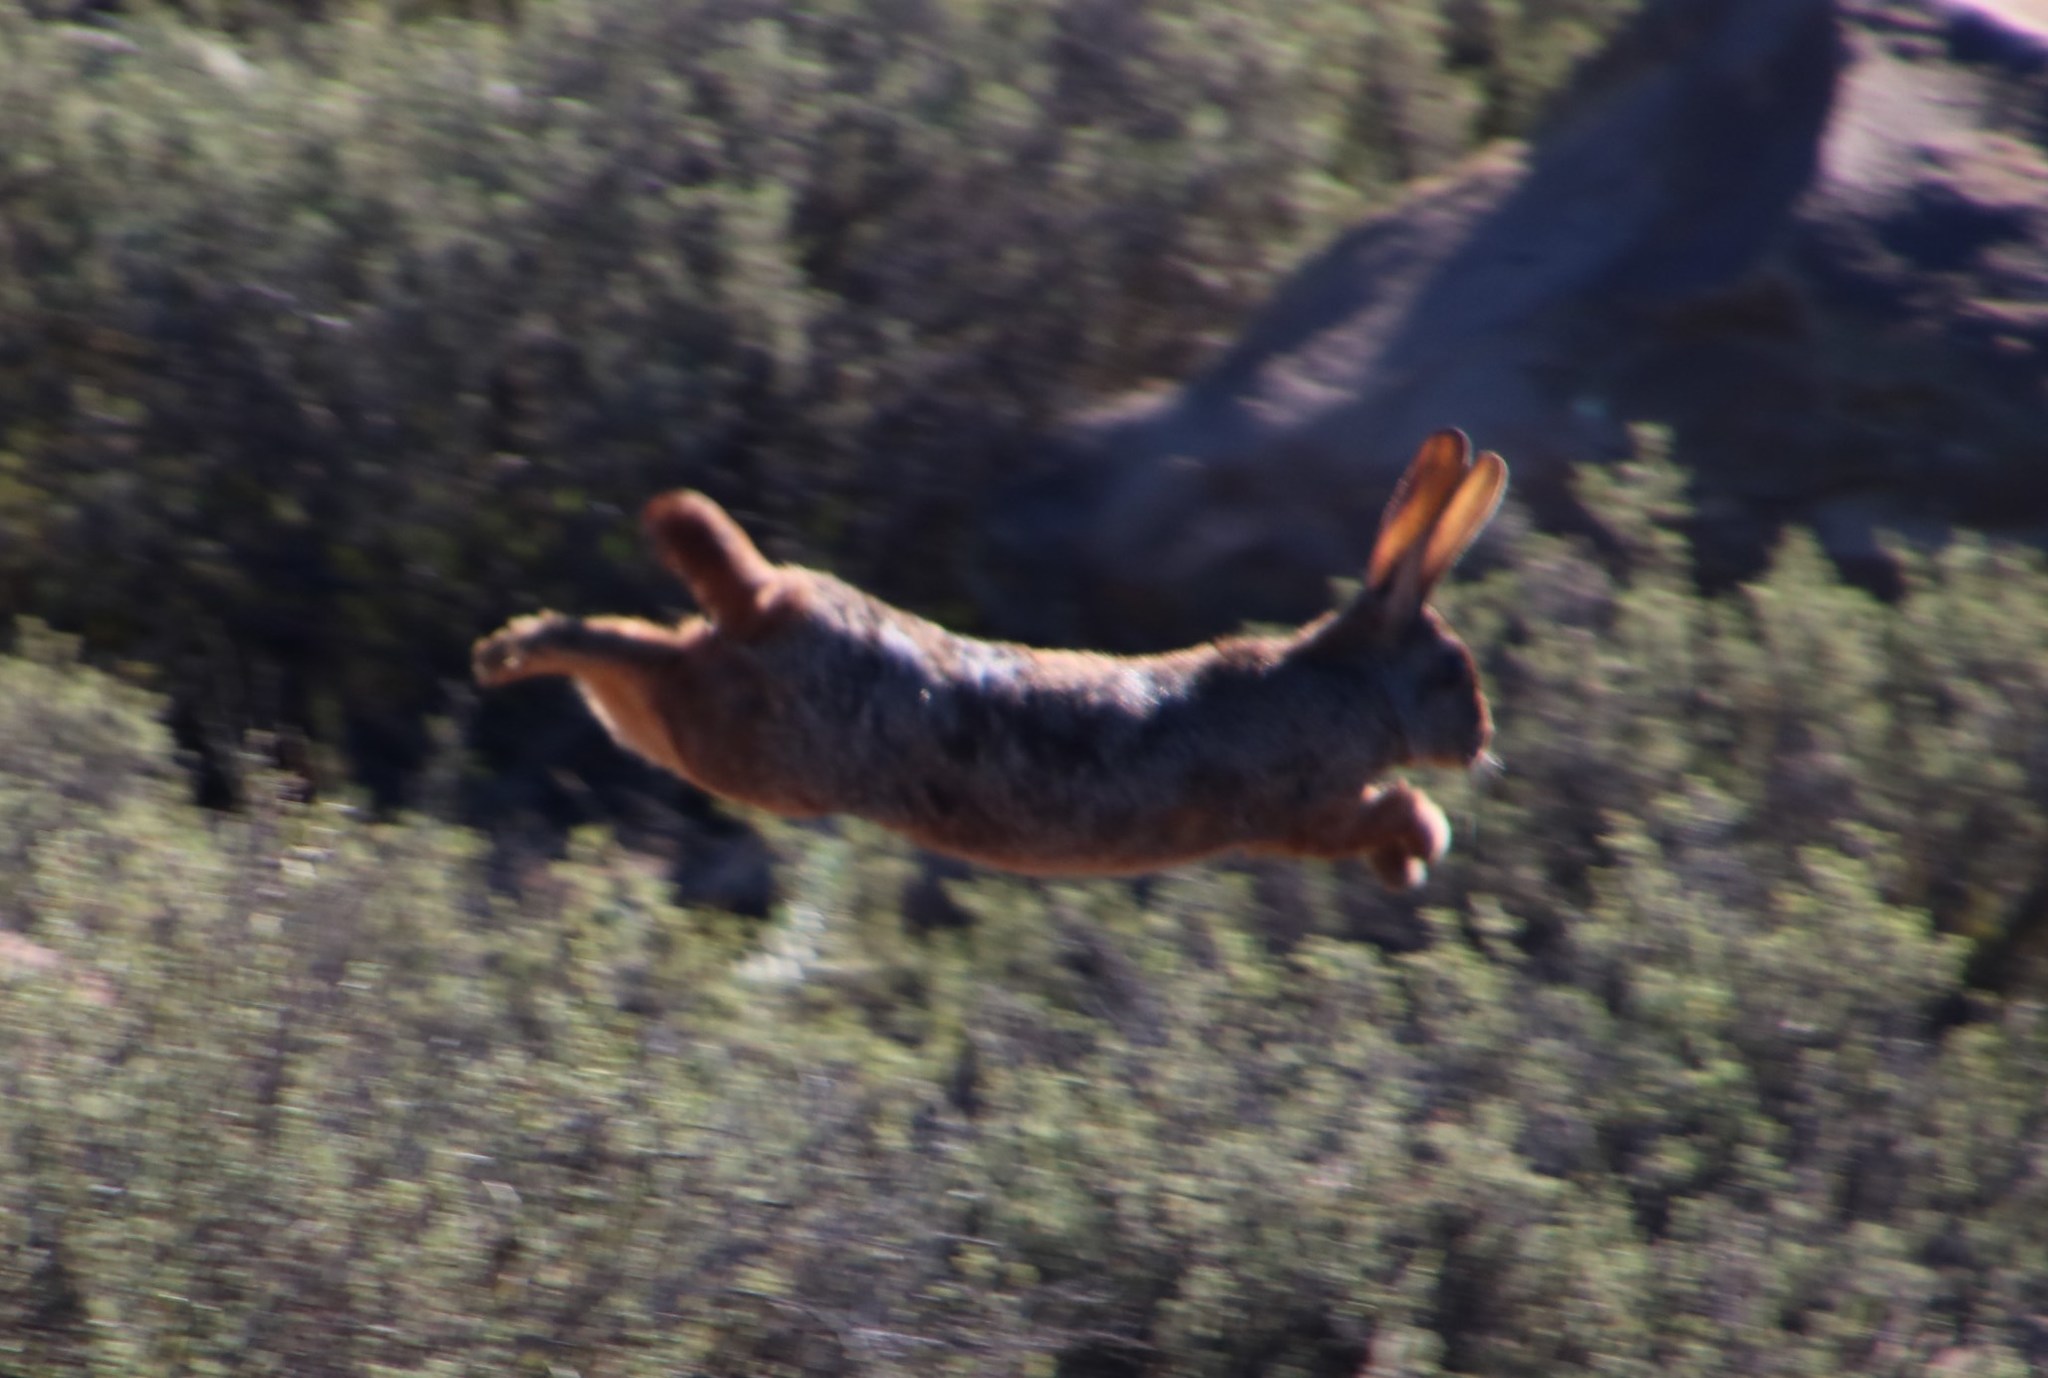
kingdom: Animalia
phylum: Chordata
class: Mammalia
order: Lagomorpha
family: Leporidae
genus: Pronolagus
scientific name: Pronolagus saundersiae
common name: Hewitt's red rock hare
